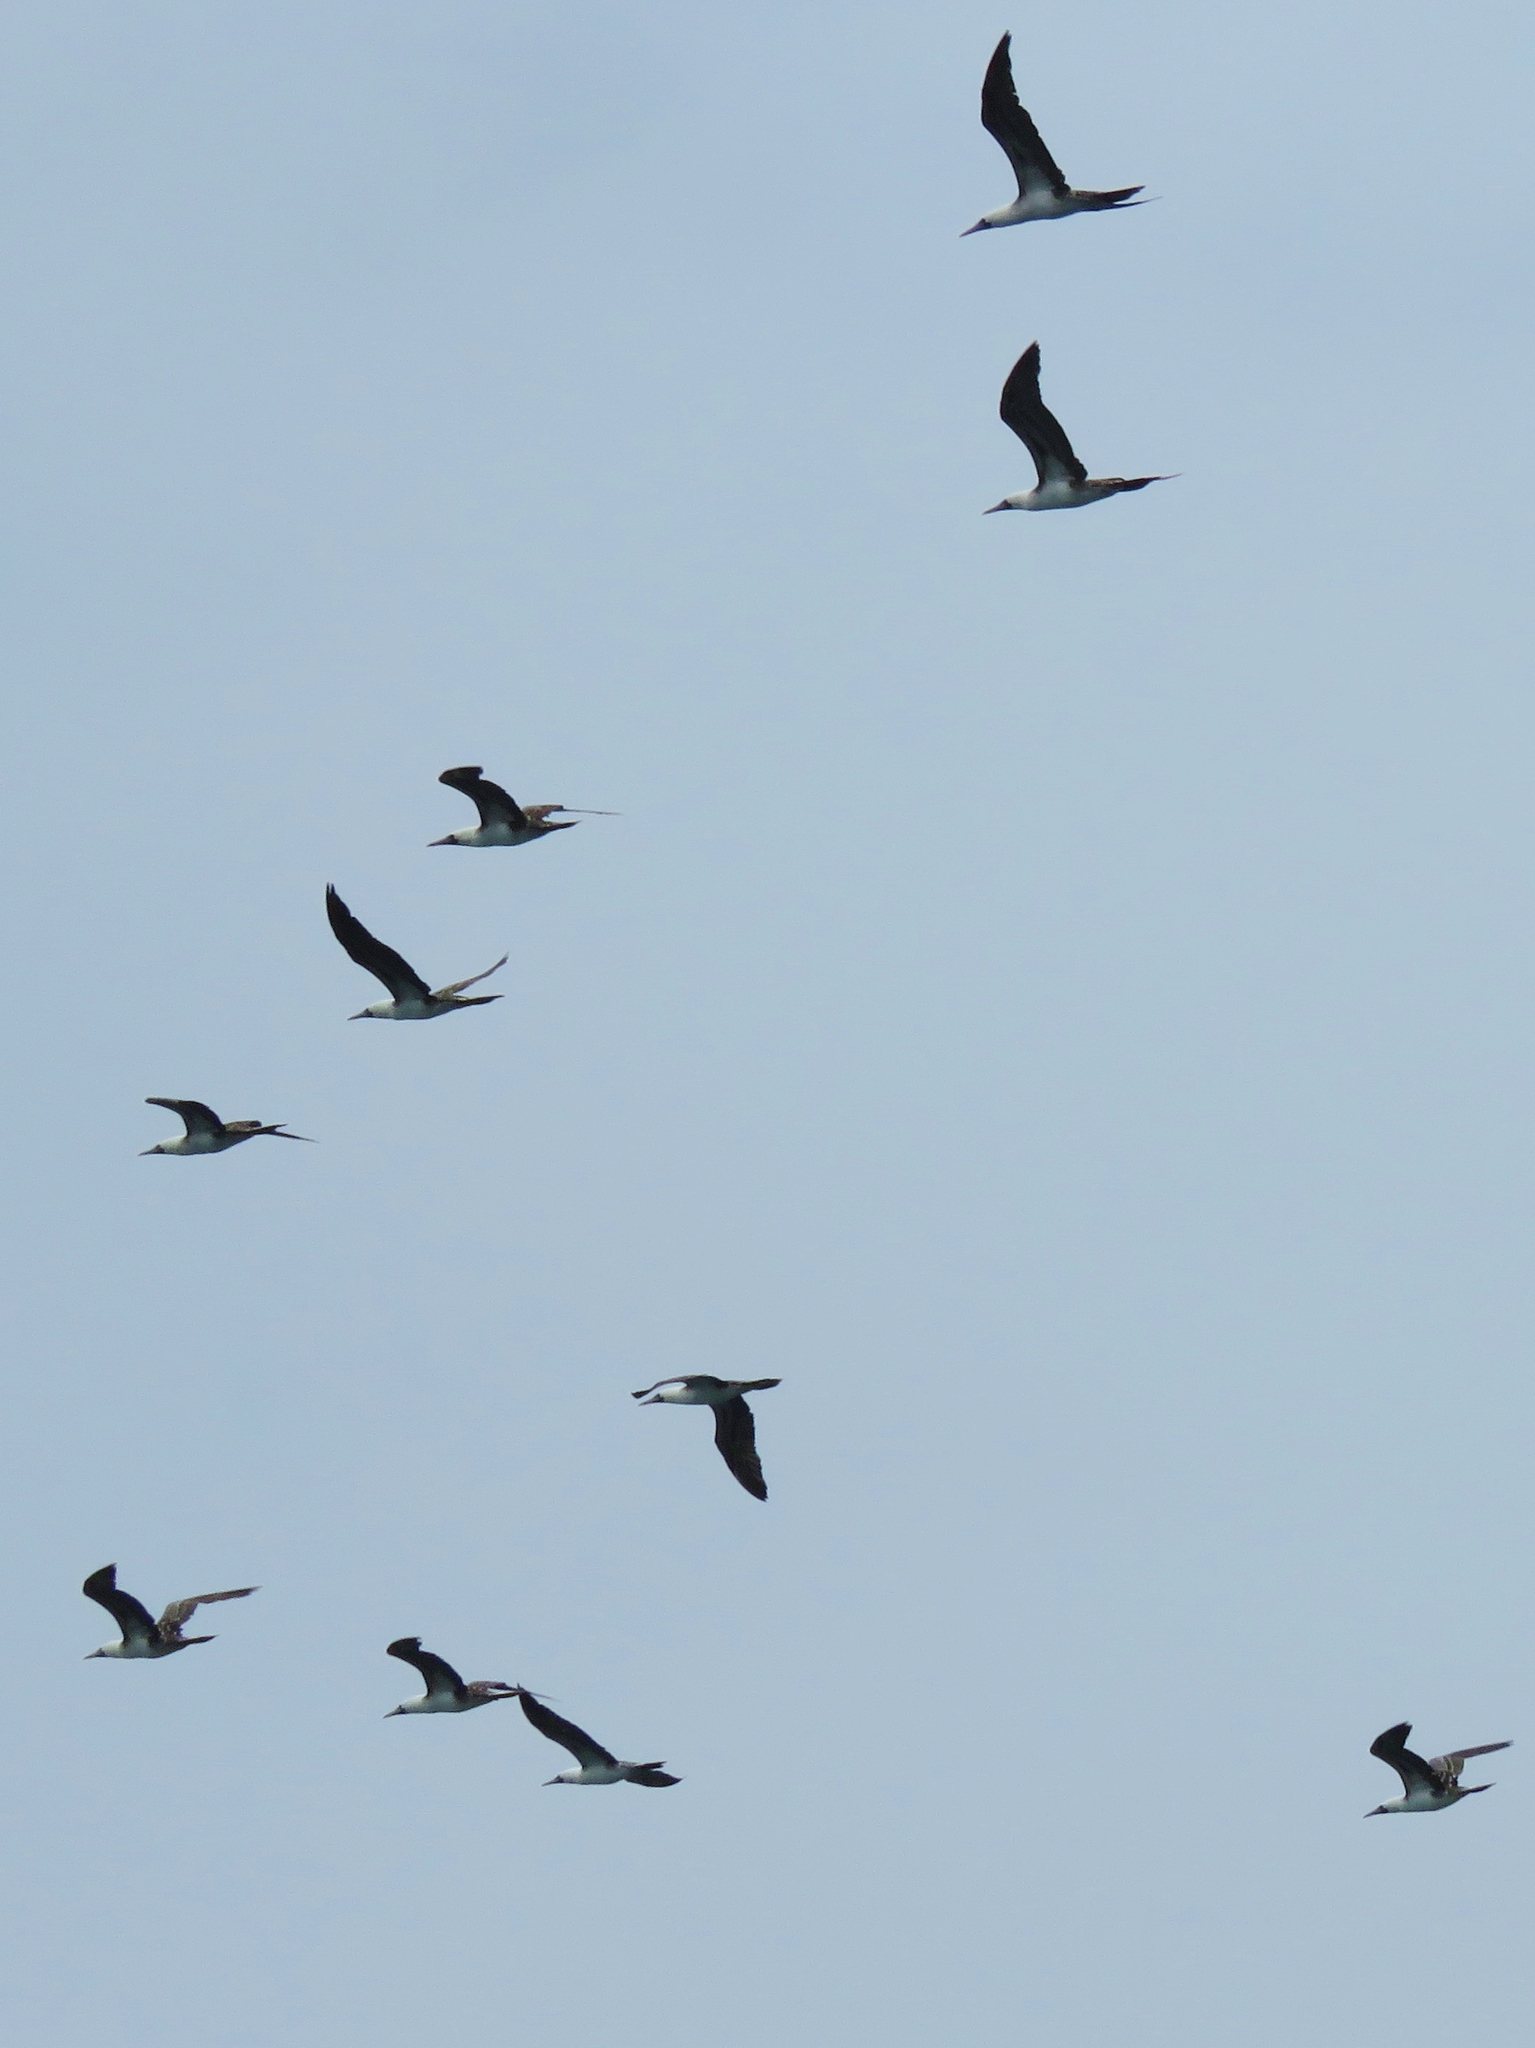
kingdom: Animalia
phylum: Chordata
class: Aves
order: Suliformes
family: Sulidae
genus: Sula
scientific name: Sula variegata
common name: Peruvian booby
